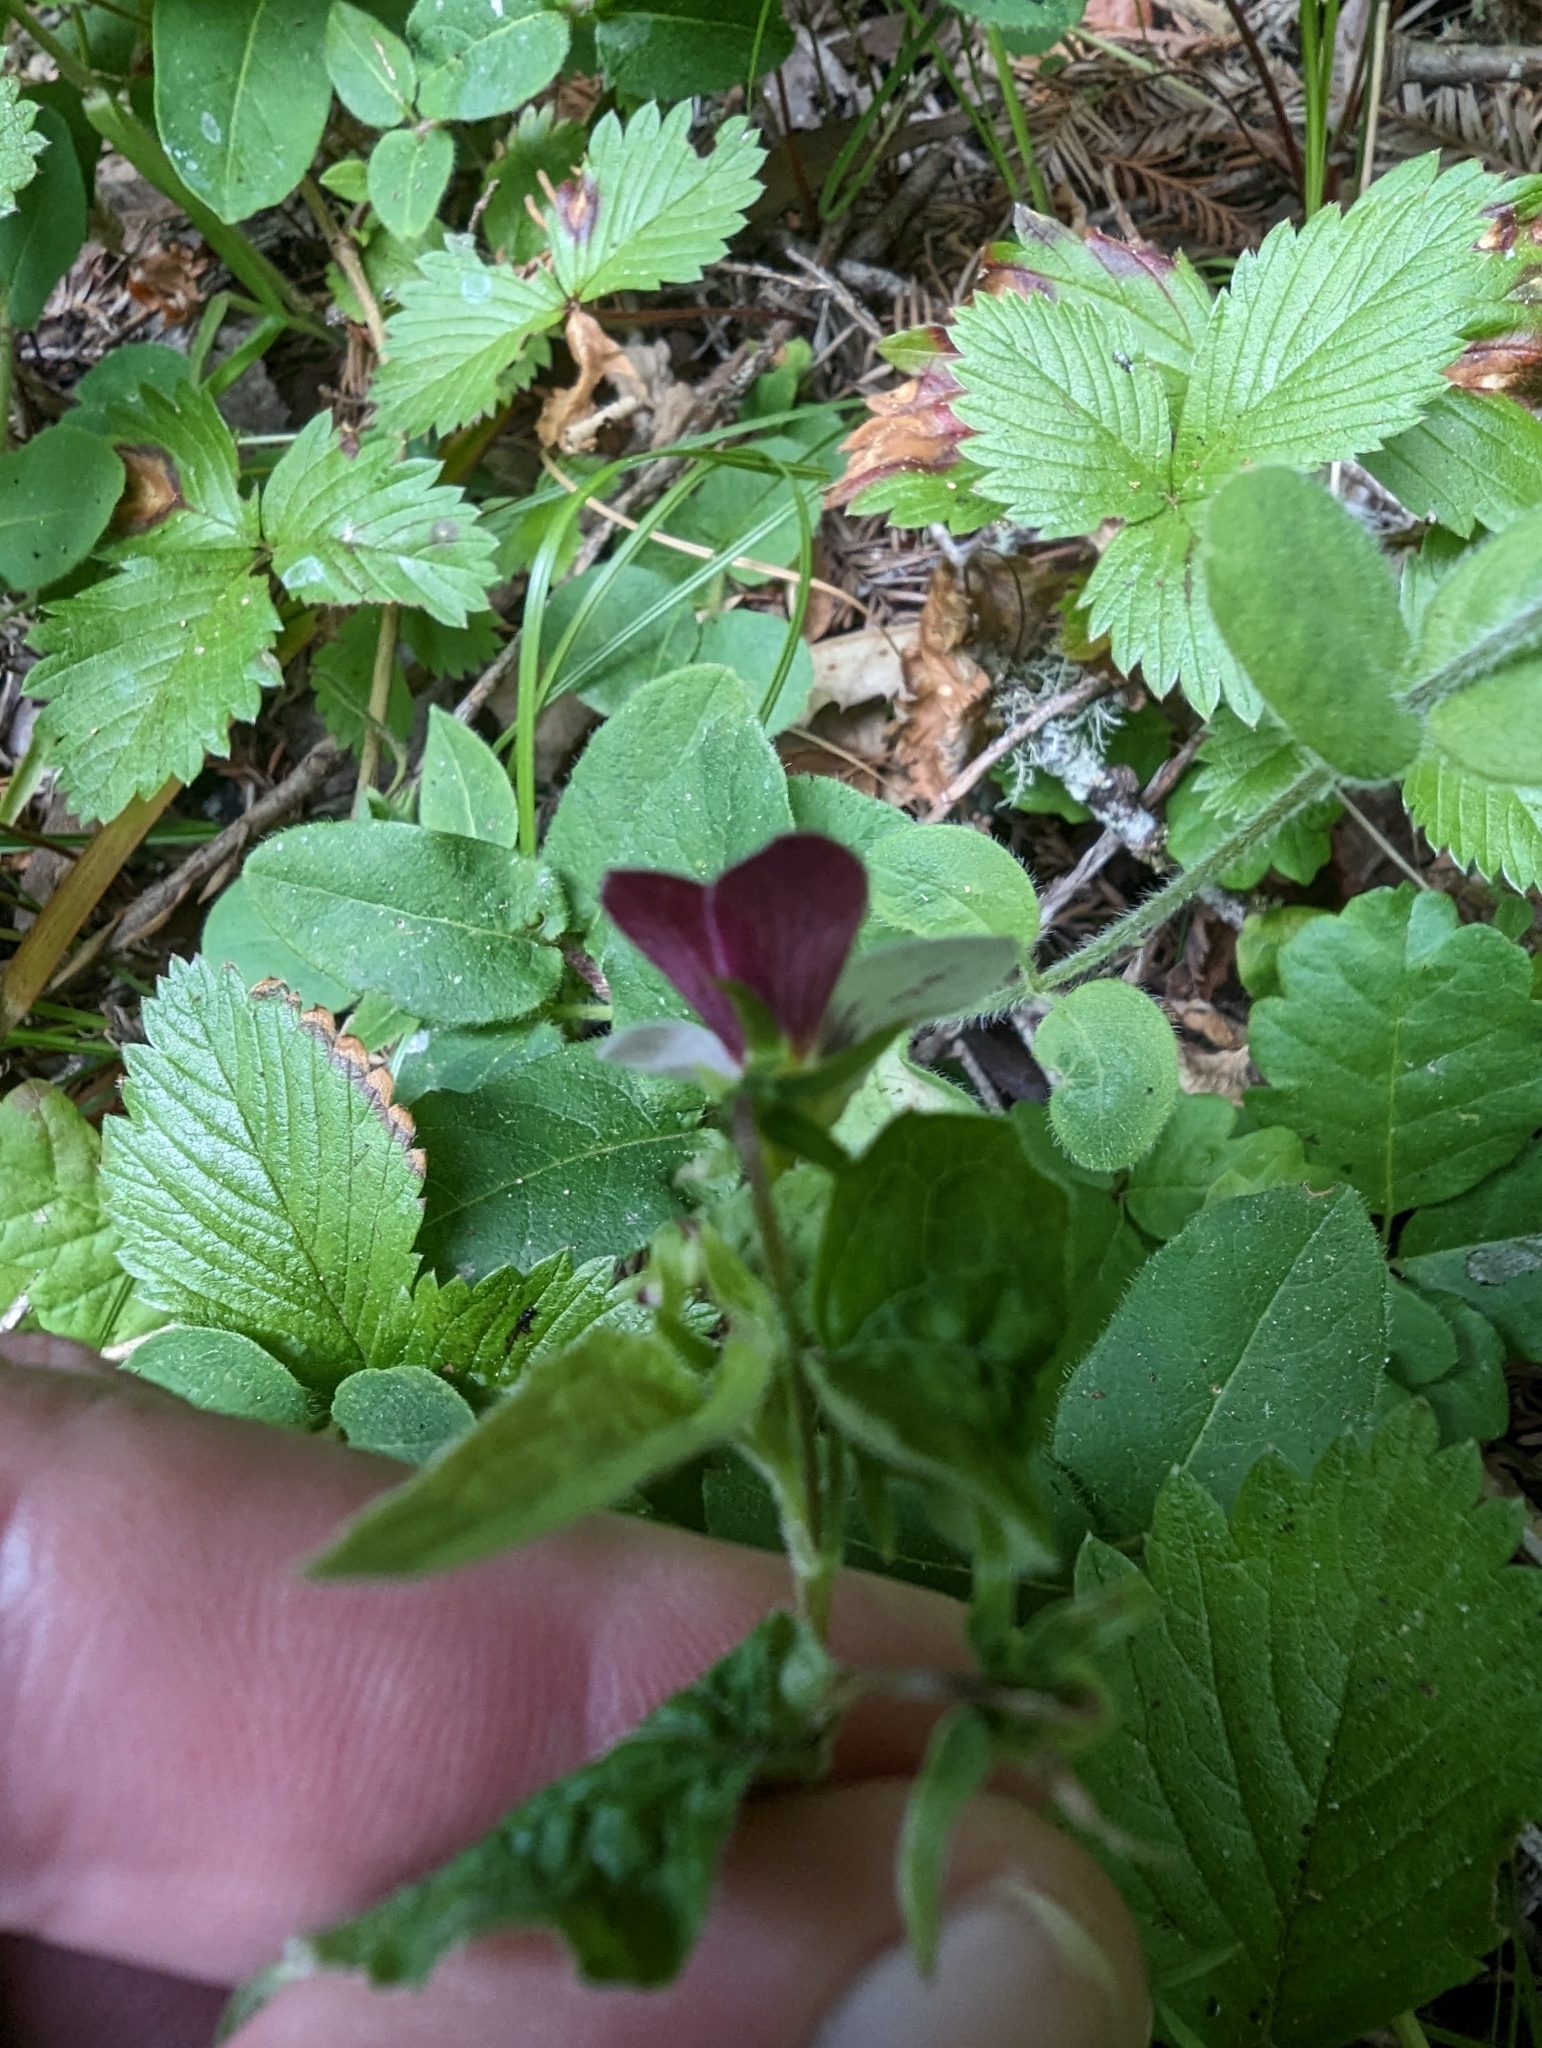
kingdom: Plantae
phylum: Tracheophyta
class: Magnoliopsida
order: Malpighiales
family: Violaceae
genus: Viola
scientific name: Viola ocellata
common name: Western heart's ease
